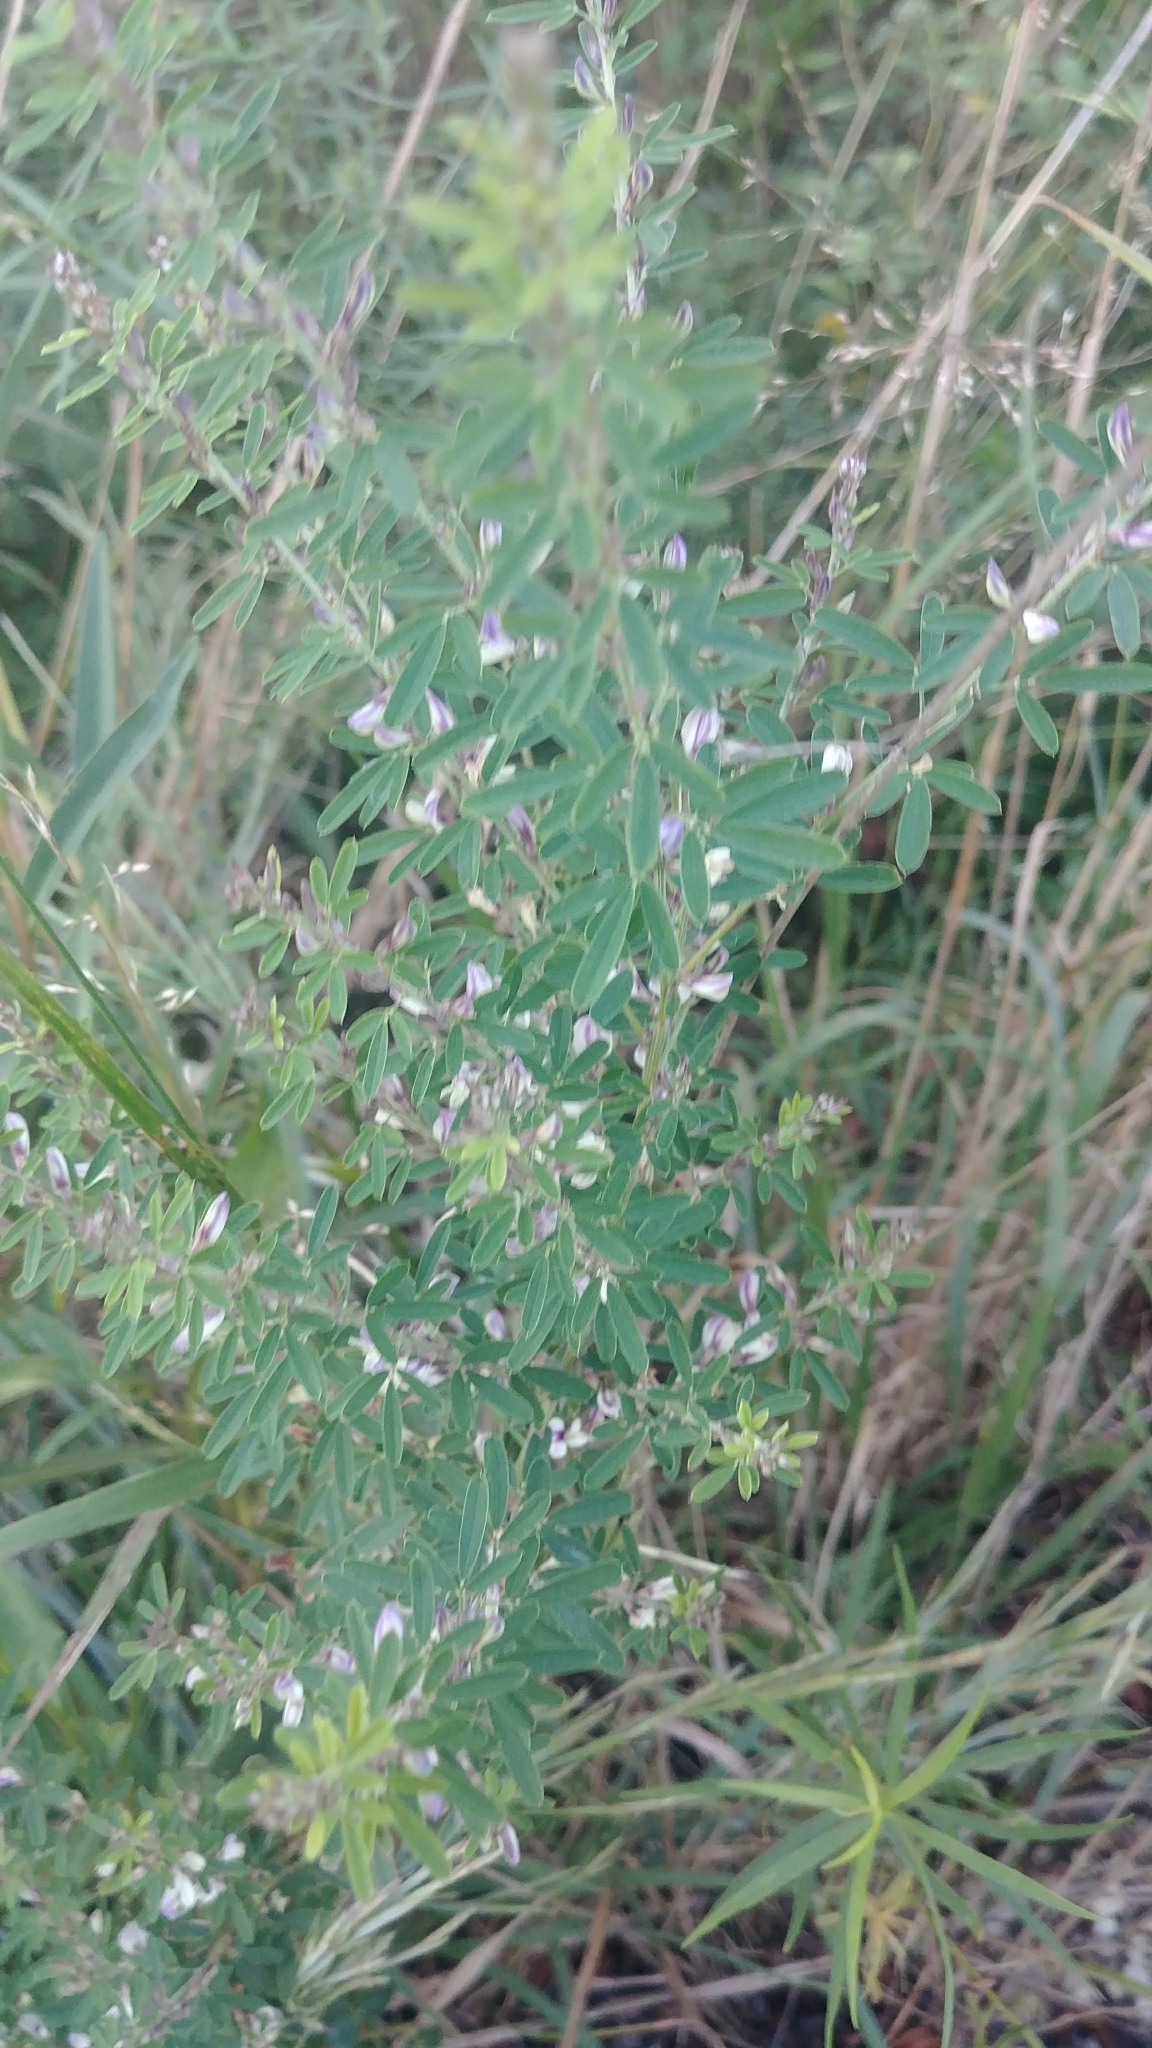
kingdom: Plantae
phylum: Tracheophyta
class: Magnoliopsida
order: Fabales
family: Fabaceae
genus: Lespedeza
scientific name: Lespedeza cuneata
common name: Chinese bush-clover
